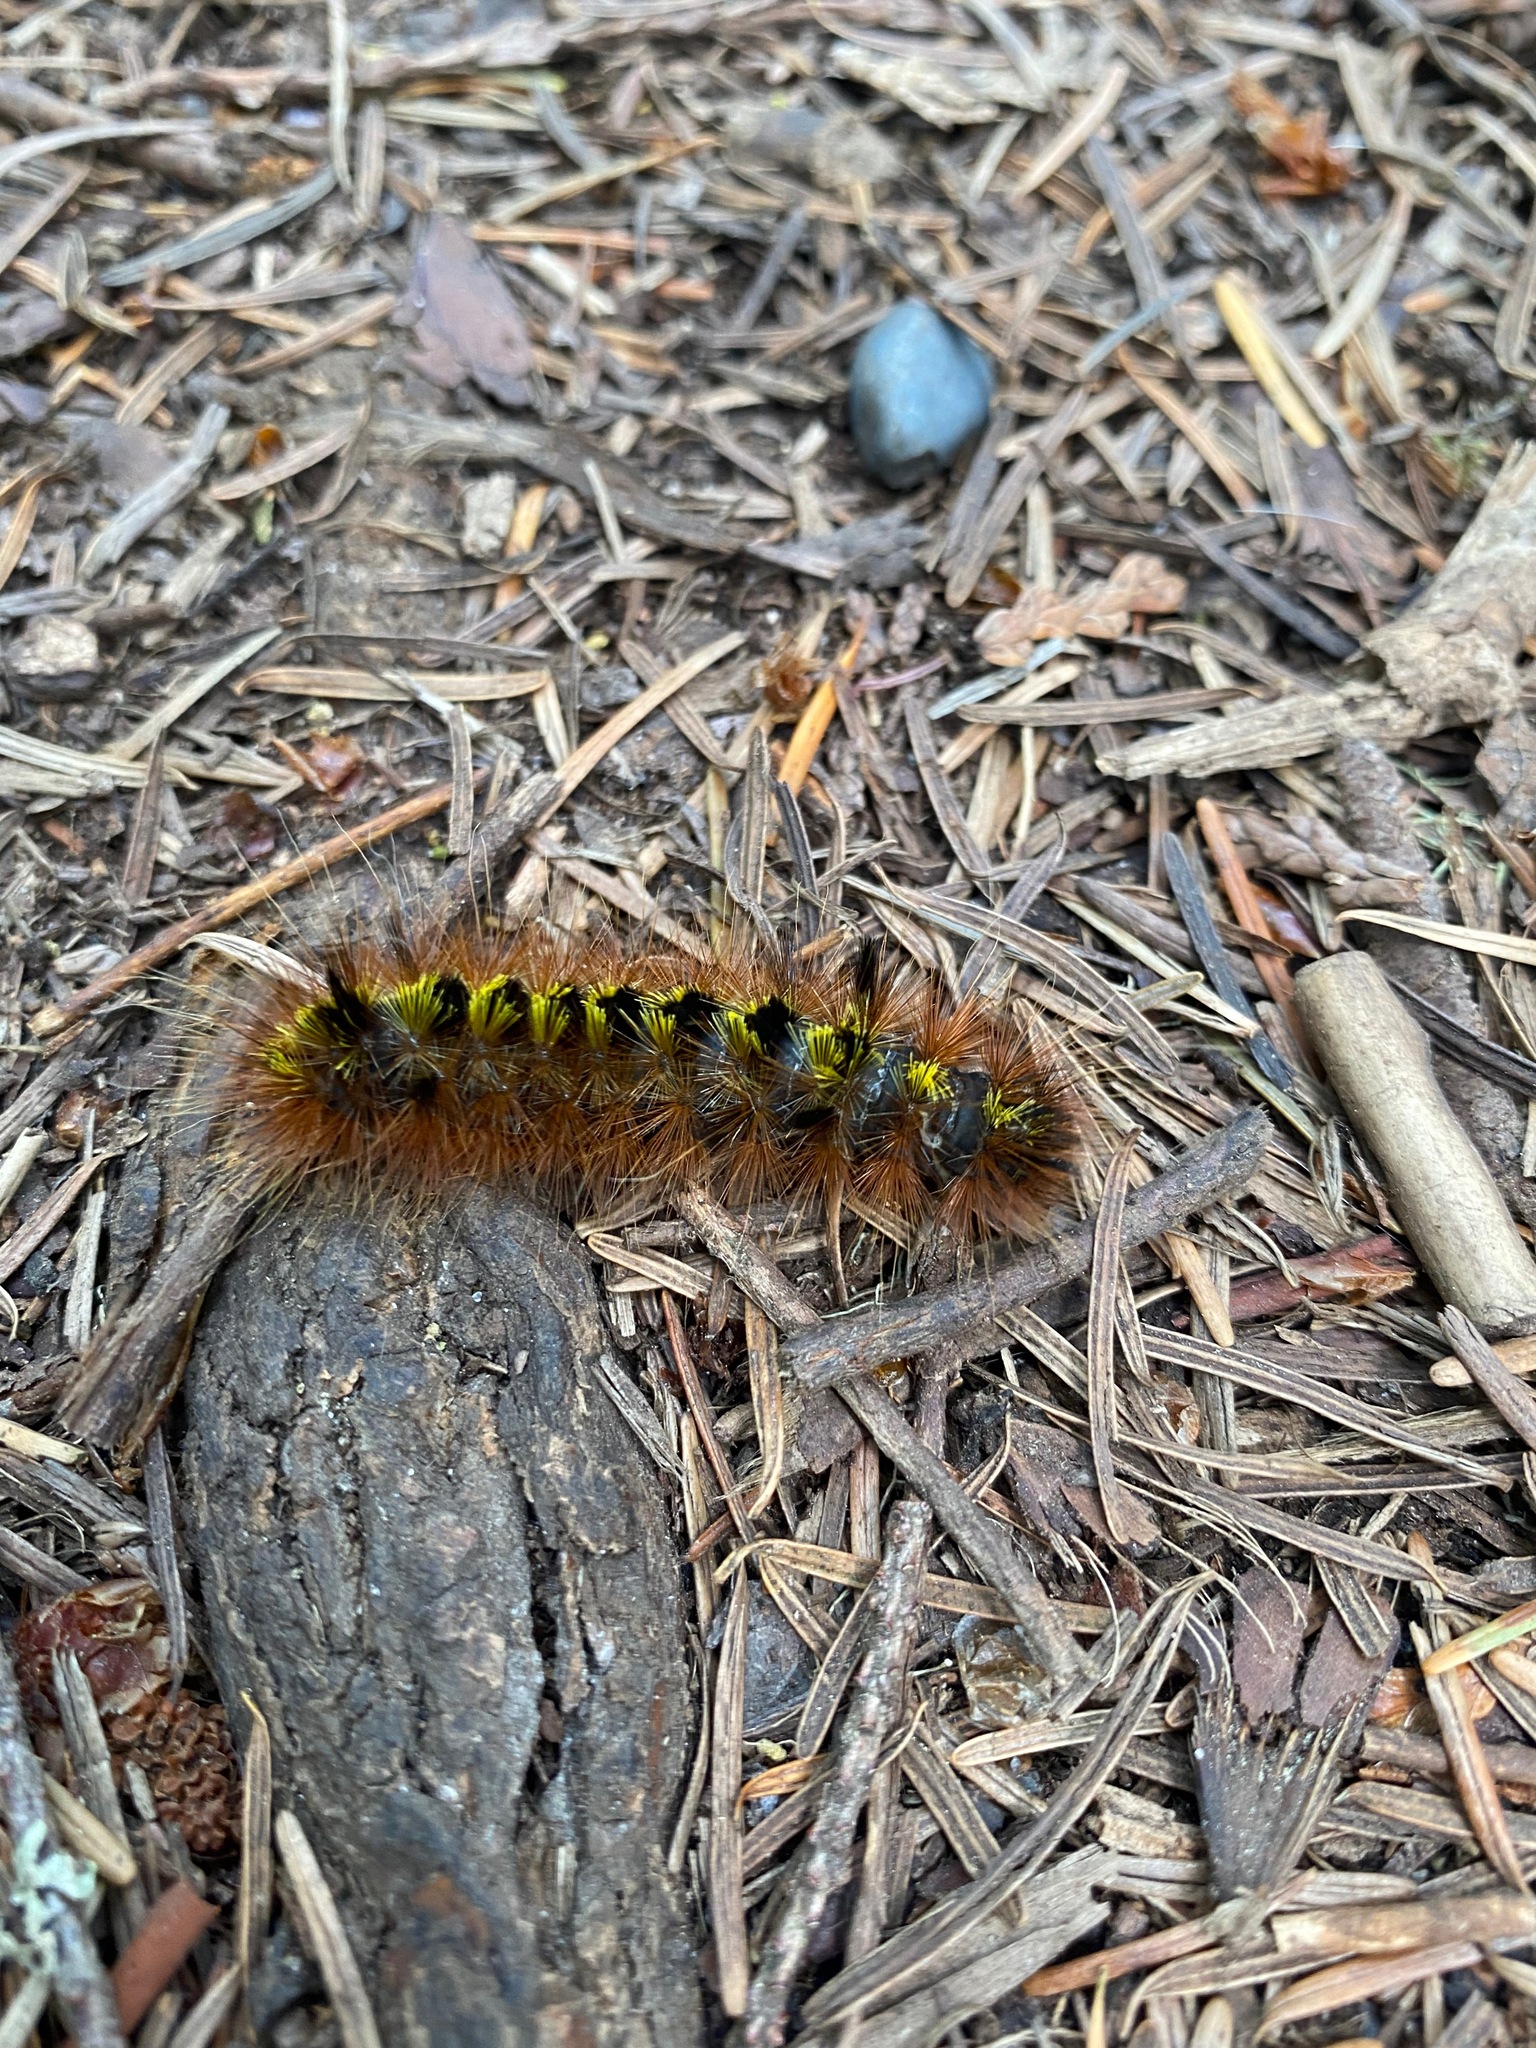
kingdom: Animalia
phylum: Arthropoda
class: Insecta
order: Lepidoptera
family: Erebidae
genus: Lophocampa
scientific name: Lophocampa argentata
